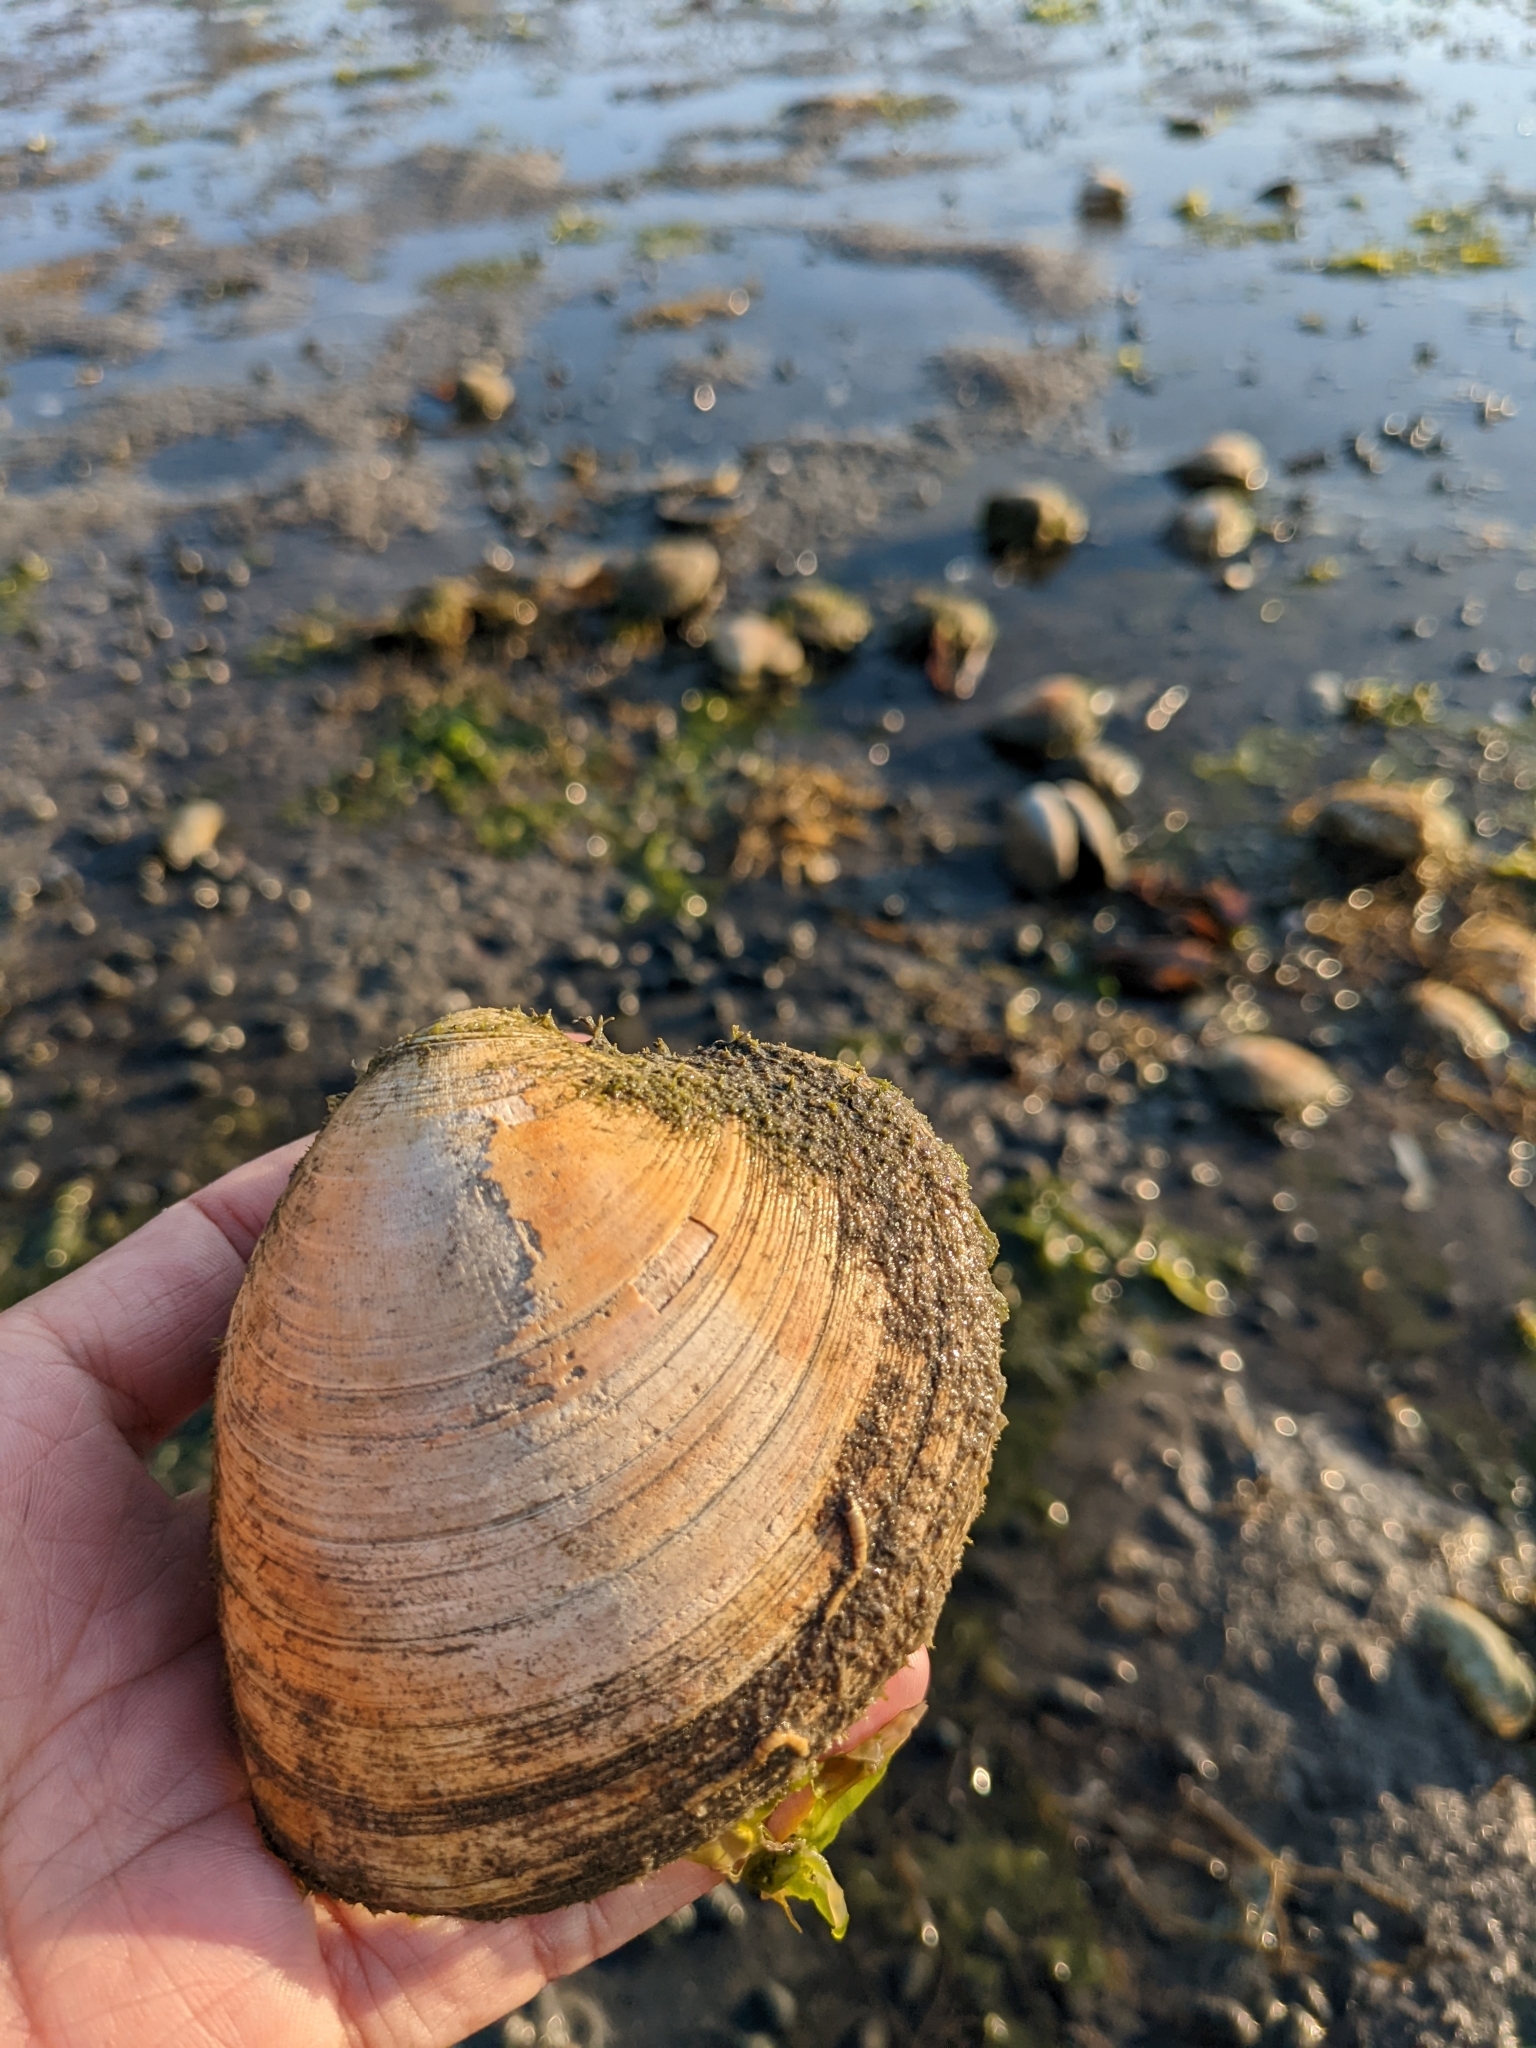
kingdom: Animalia
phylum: Mollusca
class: Bivalvia
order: Venerida
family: Veneridae
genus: Mercenaria
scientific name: Mercenaria mercenaria
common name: American hard-shelled clam
